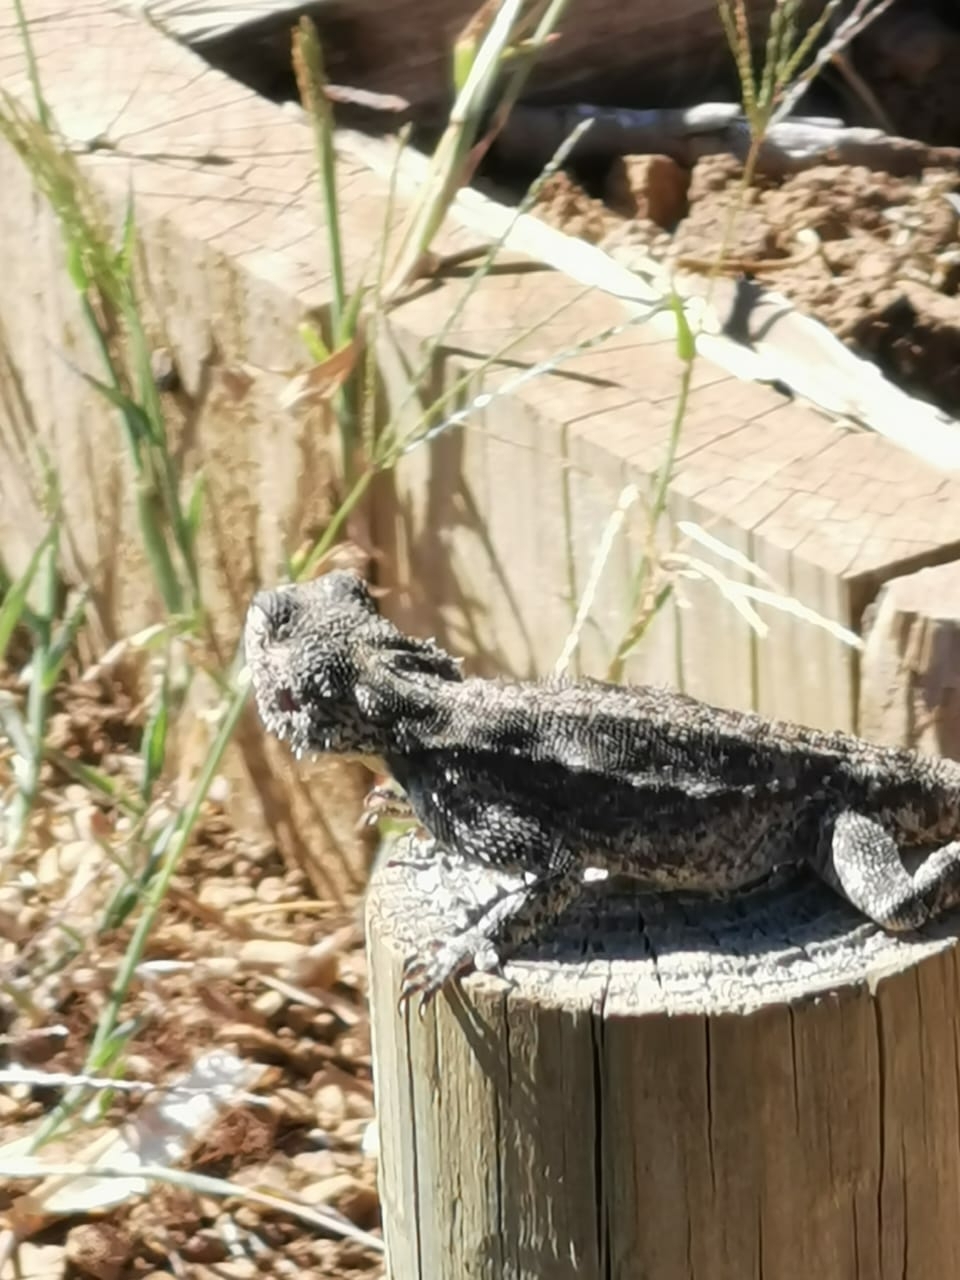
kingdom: Animalia
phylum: Chordata
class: Squamata
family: Agamidae
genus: Agama
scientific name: Agama atra
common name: Southern african rock agama
